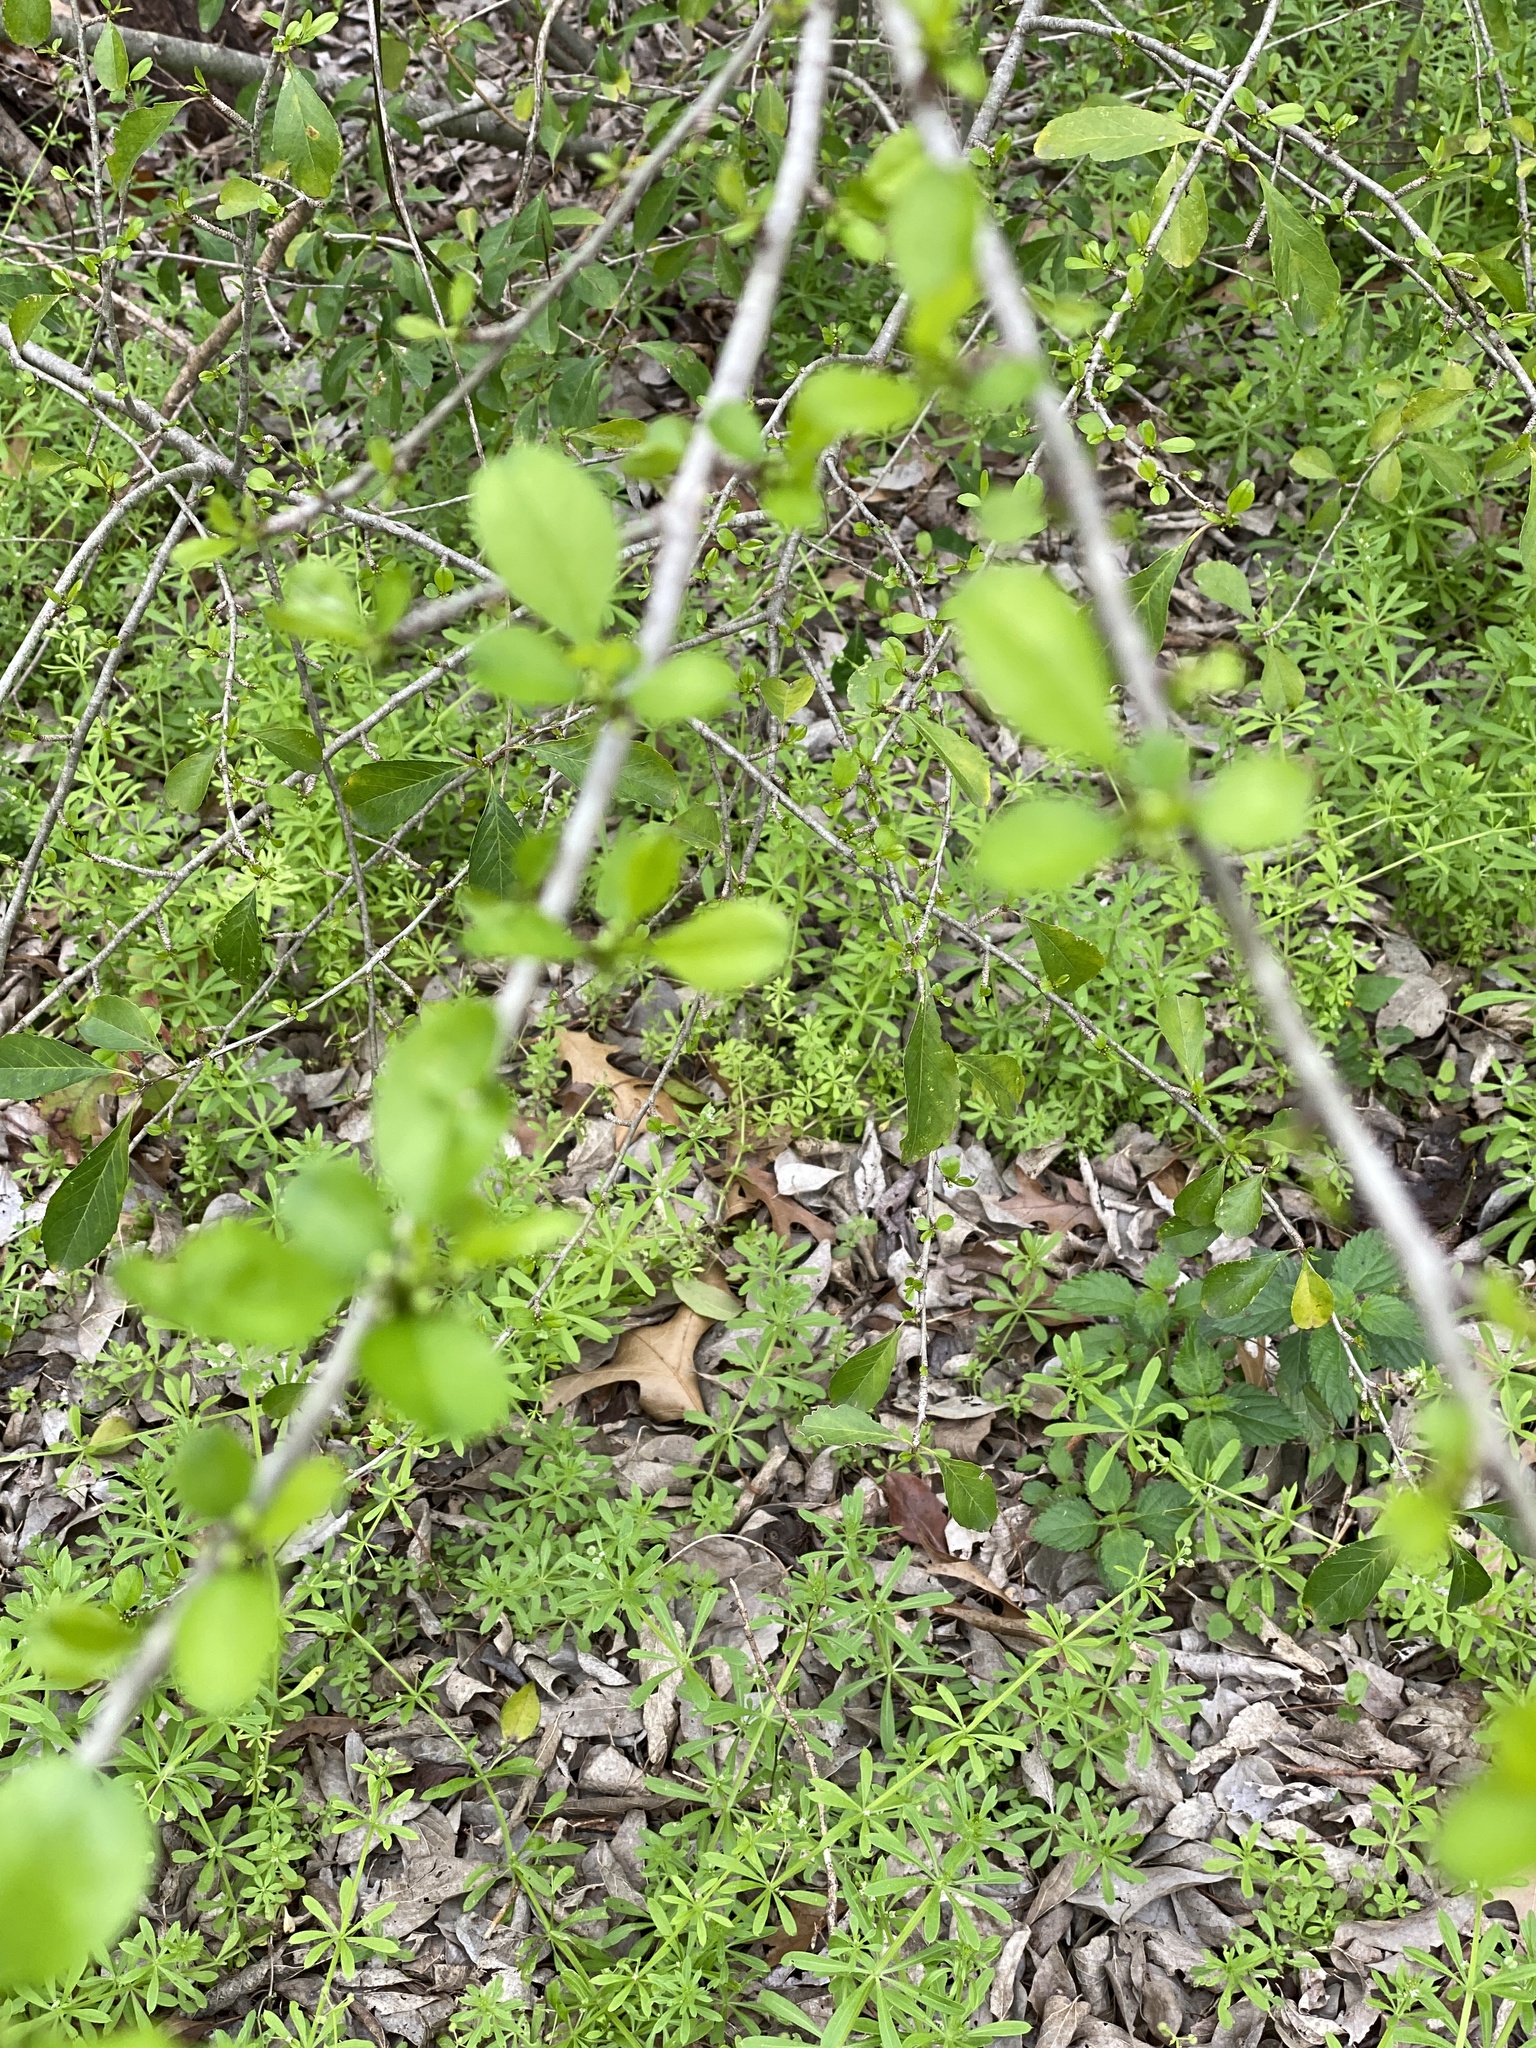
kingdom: Plantae
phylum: Tracheophyta
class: Magnoliopsida
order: Lamiales
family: Oleaceae
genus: Forestiera
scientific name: Forestiera pubescens
